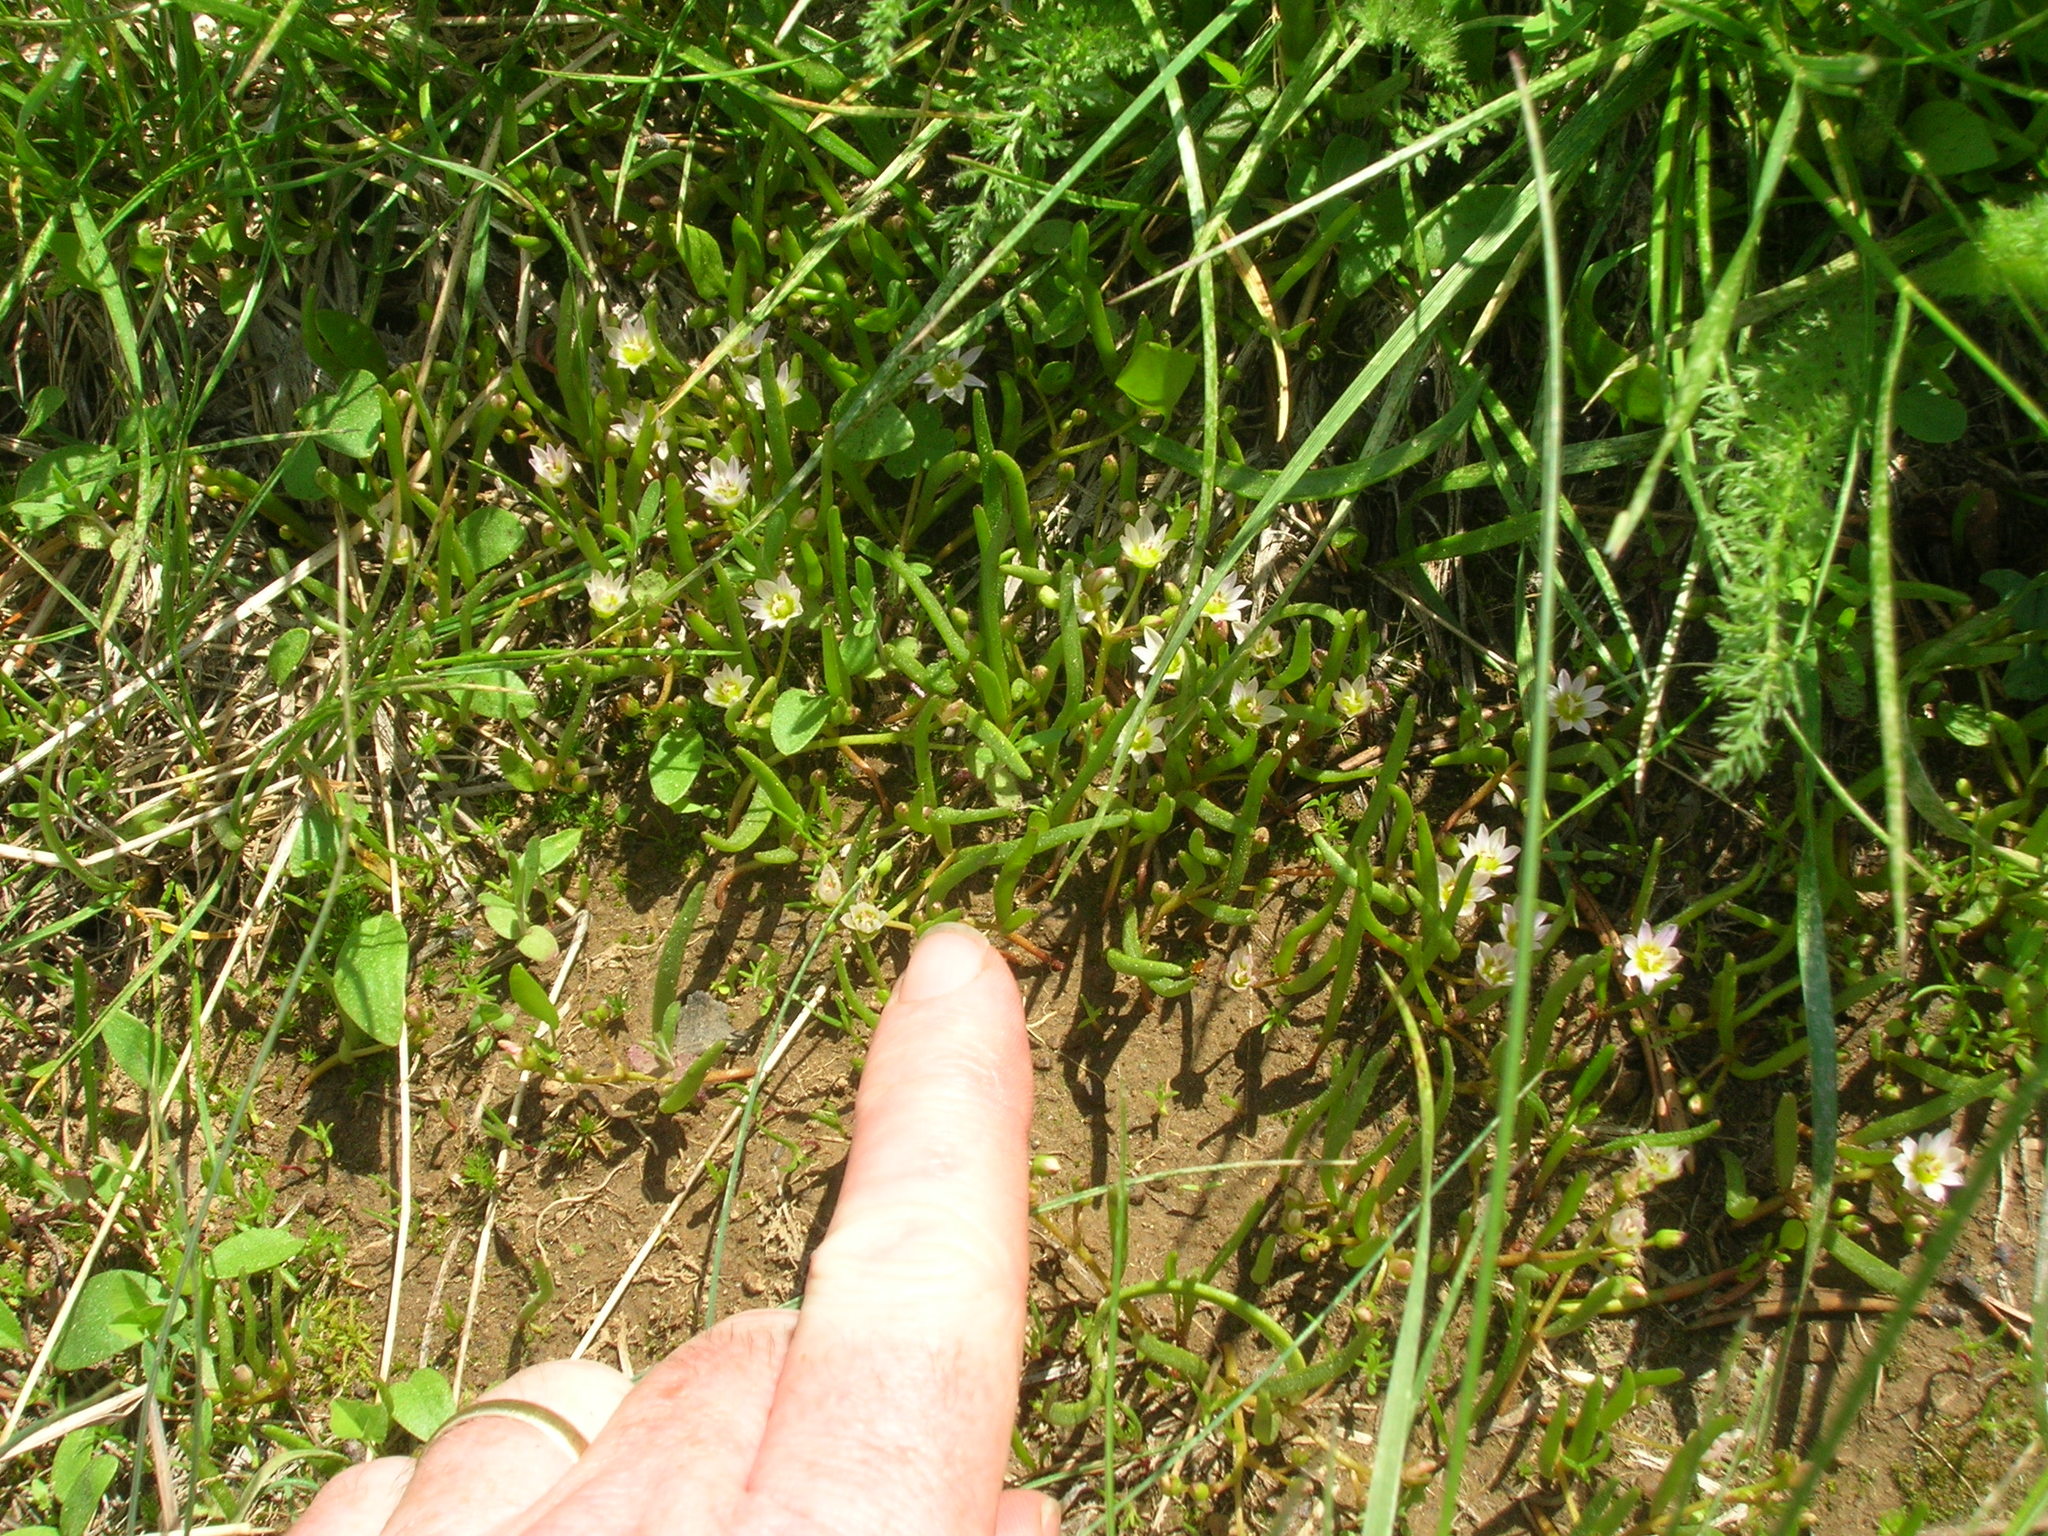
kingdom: Plantae
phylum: Tracheophyta
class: Magnoliopsida
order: Caryophyllales
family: Montiaceae
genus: Lewisia
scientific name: Lewisia triphylla
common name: Three-leaved bitterroot
